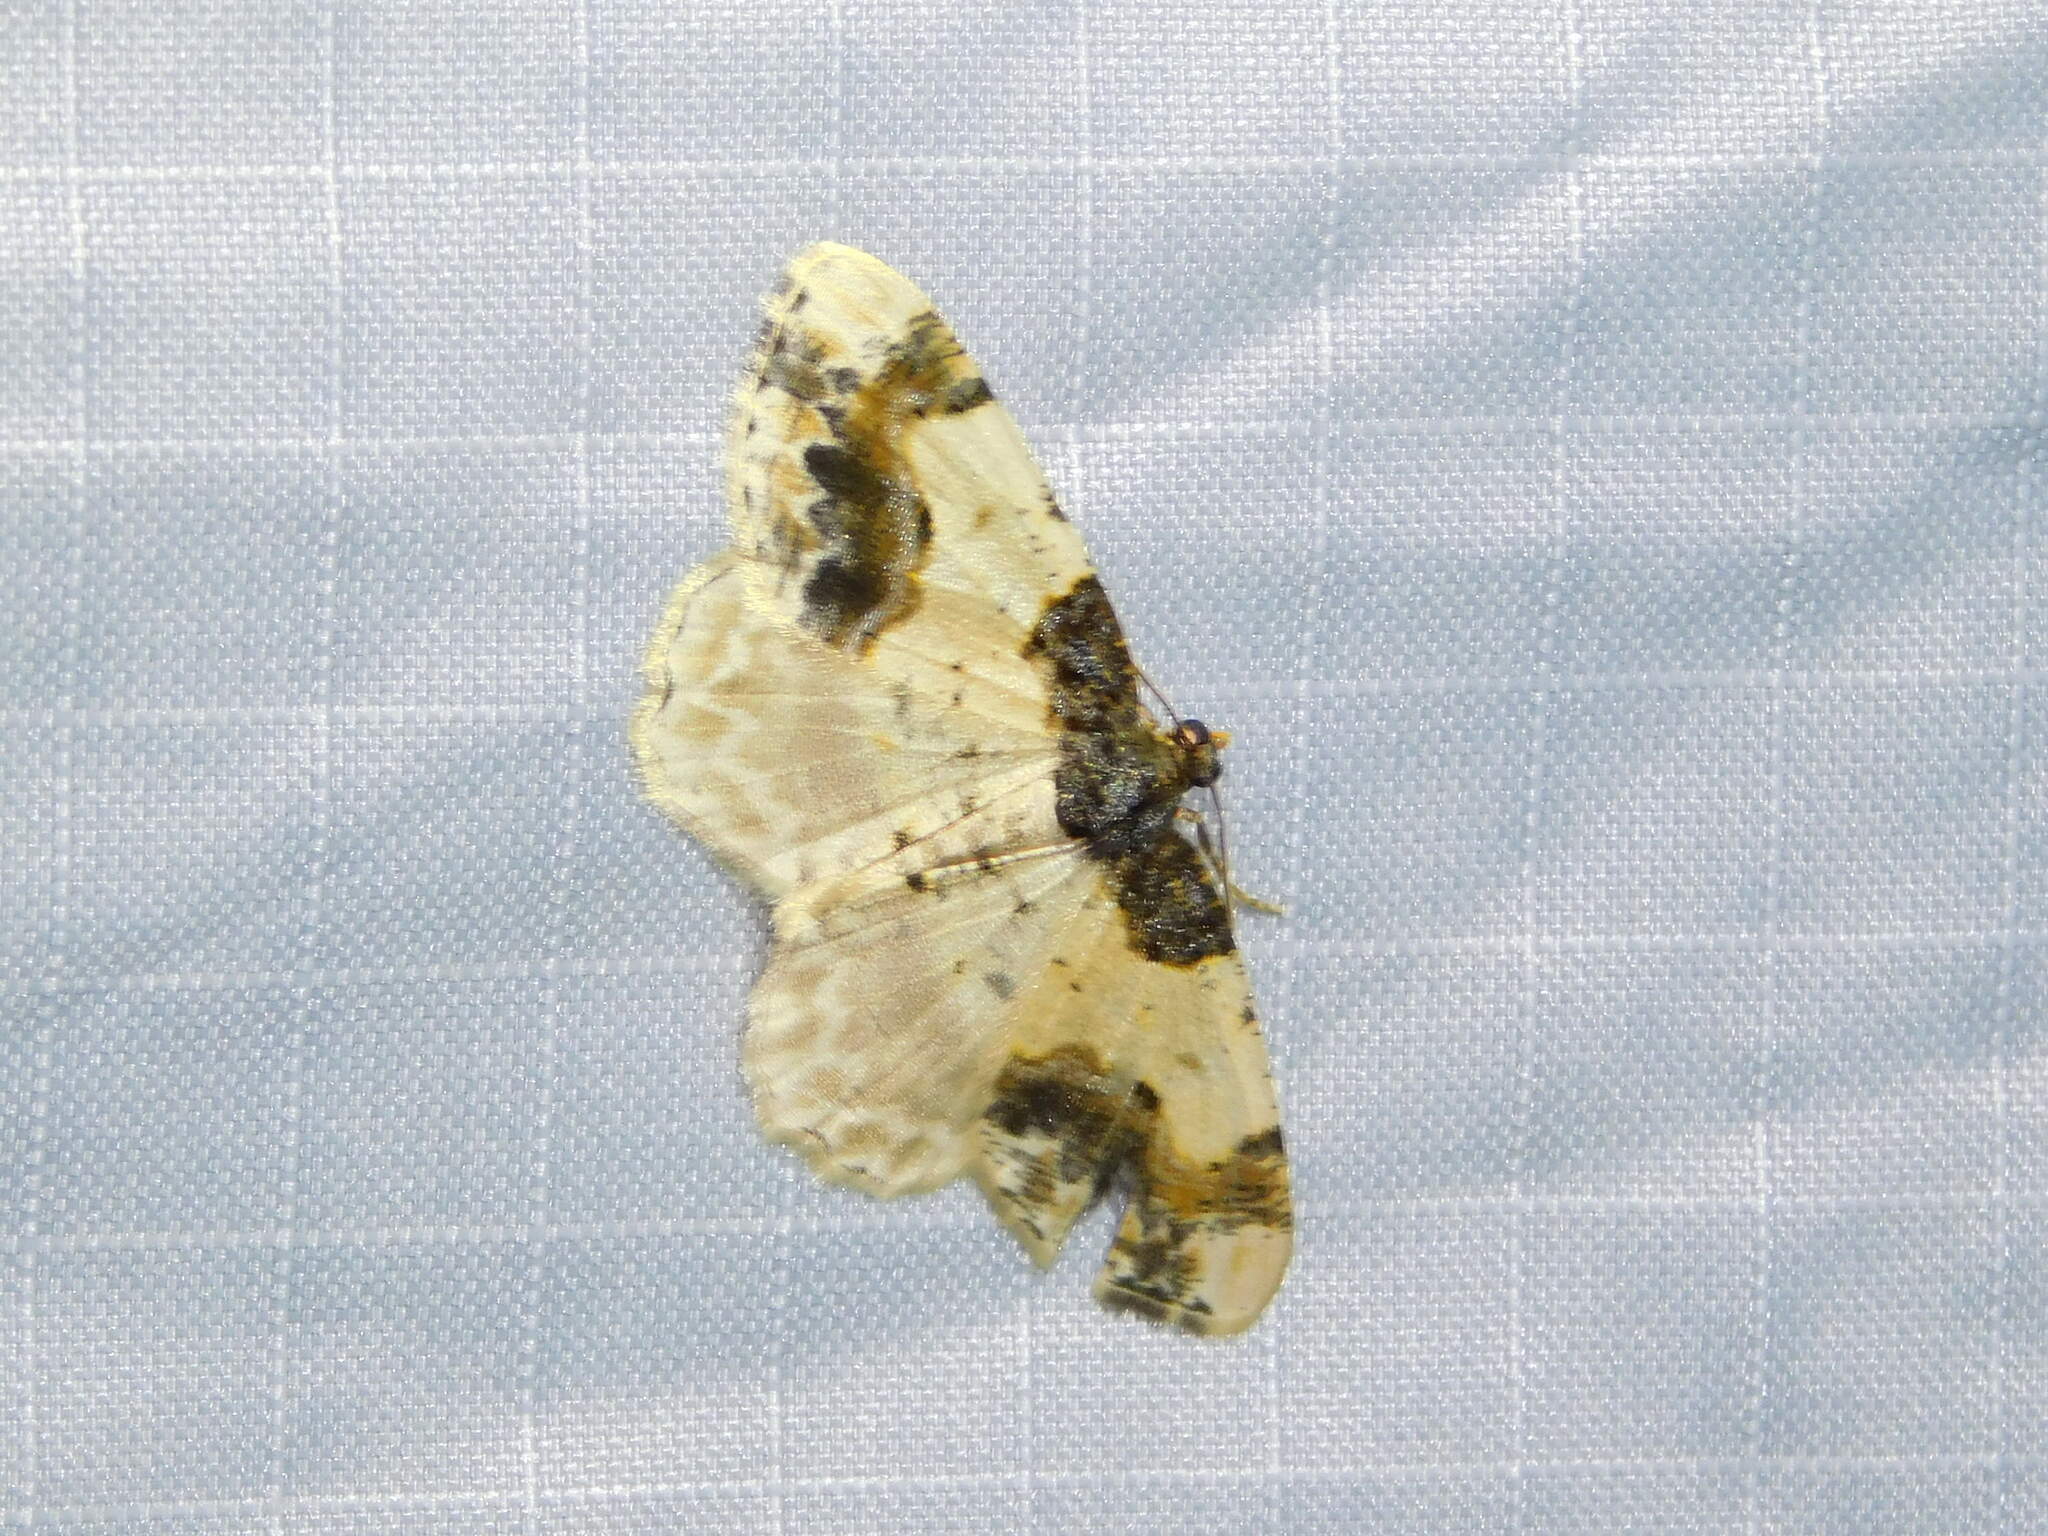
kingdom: Animalia
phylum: Arthropoda
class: Insecta
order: Lepidoptera
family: Geometridae
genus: Ligdia
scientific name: Ligdia adustata
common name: Scorched carpet
